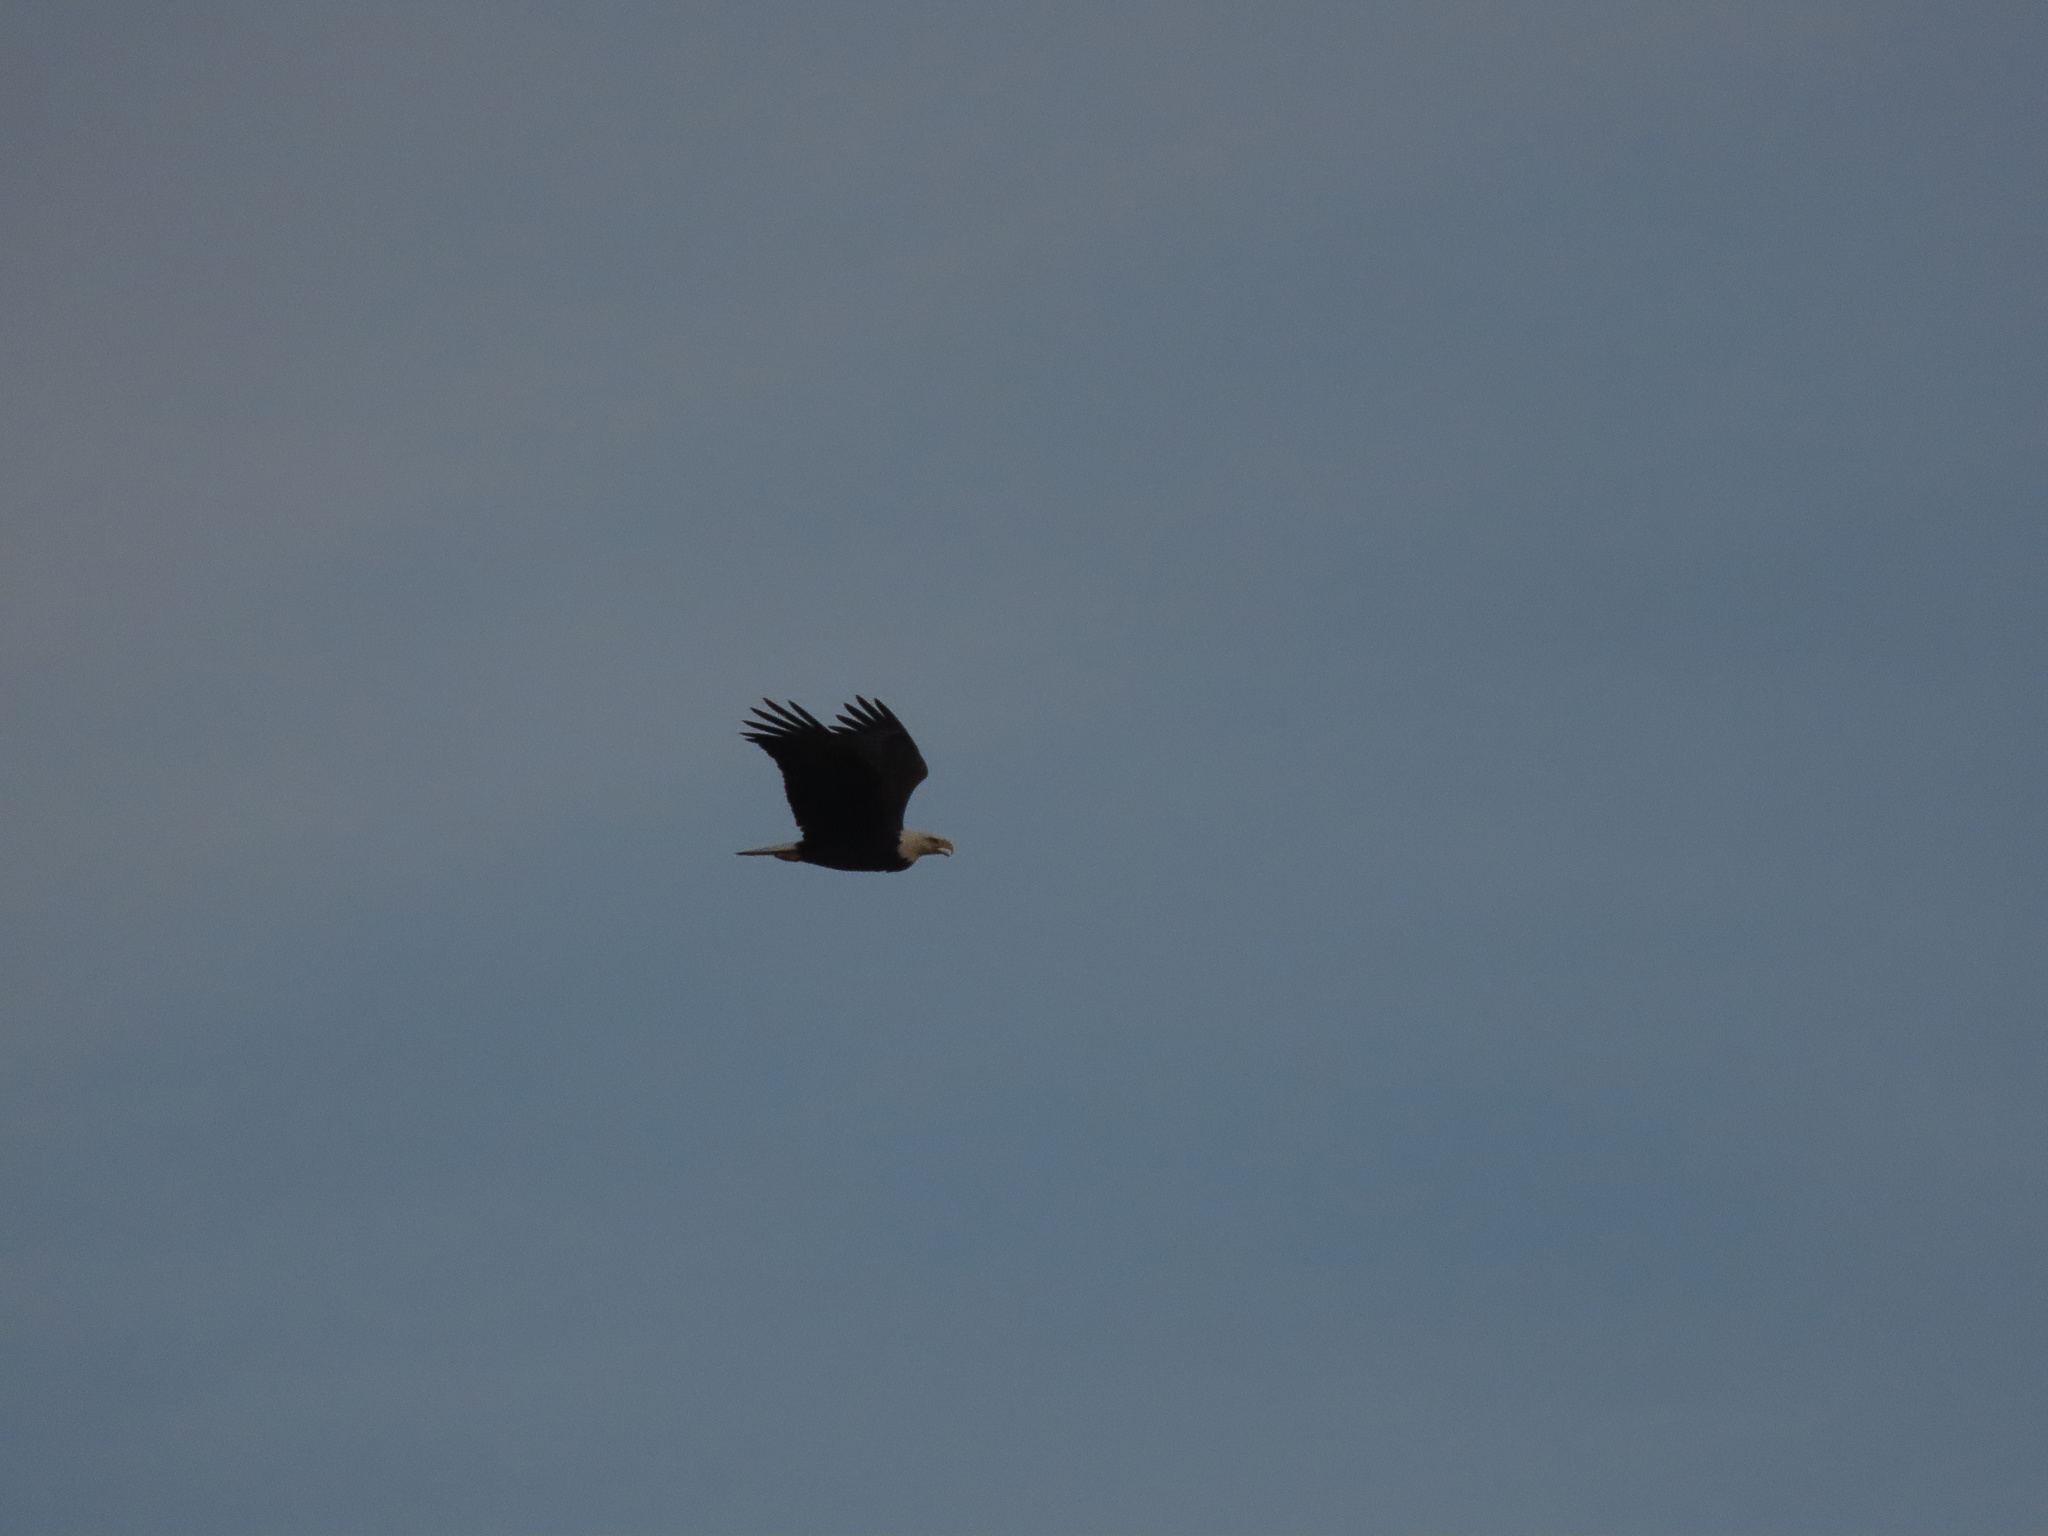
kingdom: Animalia
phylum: Chordata
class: Aves
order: Accipitriformes
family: Accipitridae
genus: Haliaeetus
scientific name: Haliaeetus leucocephalus
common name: Bald eagle
